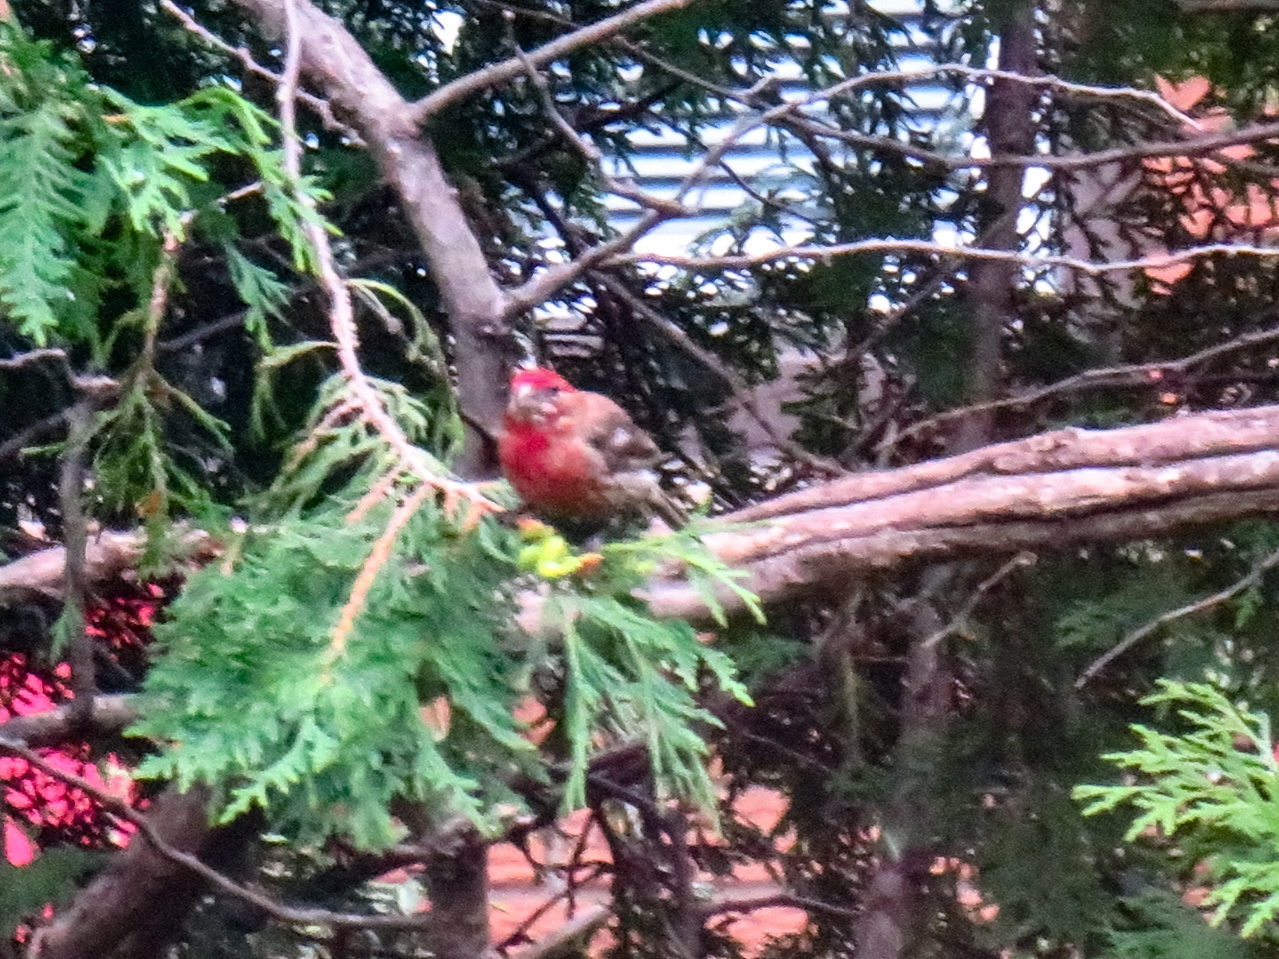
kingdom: Animalia
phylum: Chordata
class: Aves
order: Passeriformes
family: Fringillidae
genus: Haemorhous
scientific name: Haemorhous mexicanus
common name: House finch
